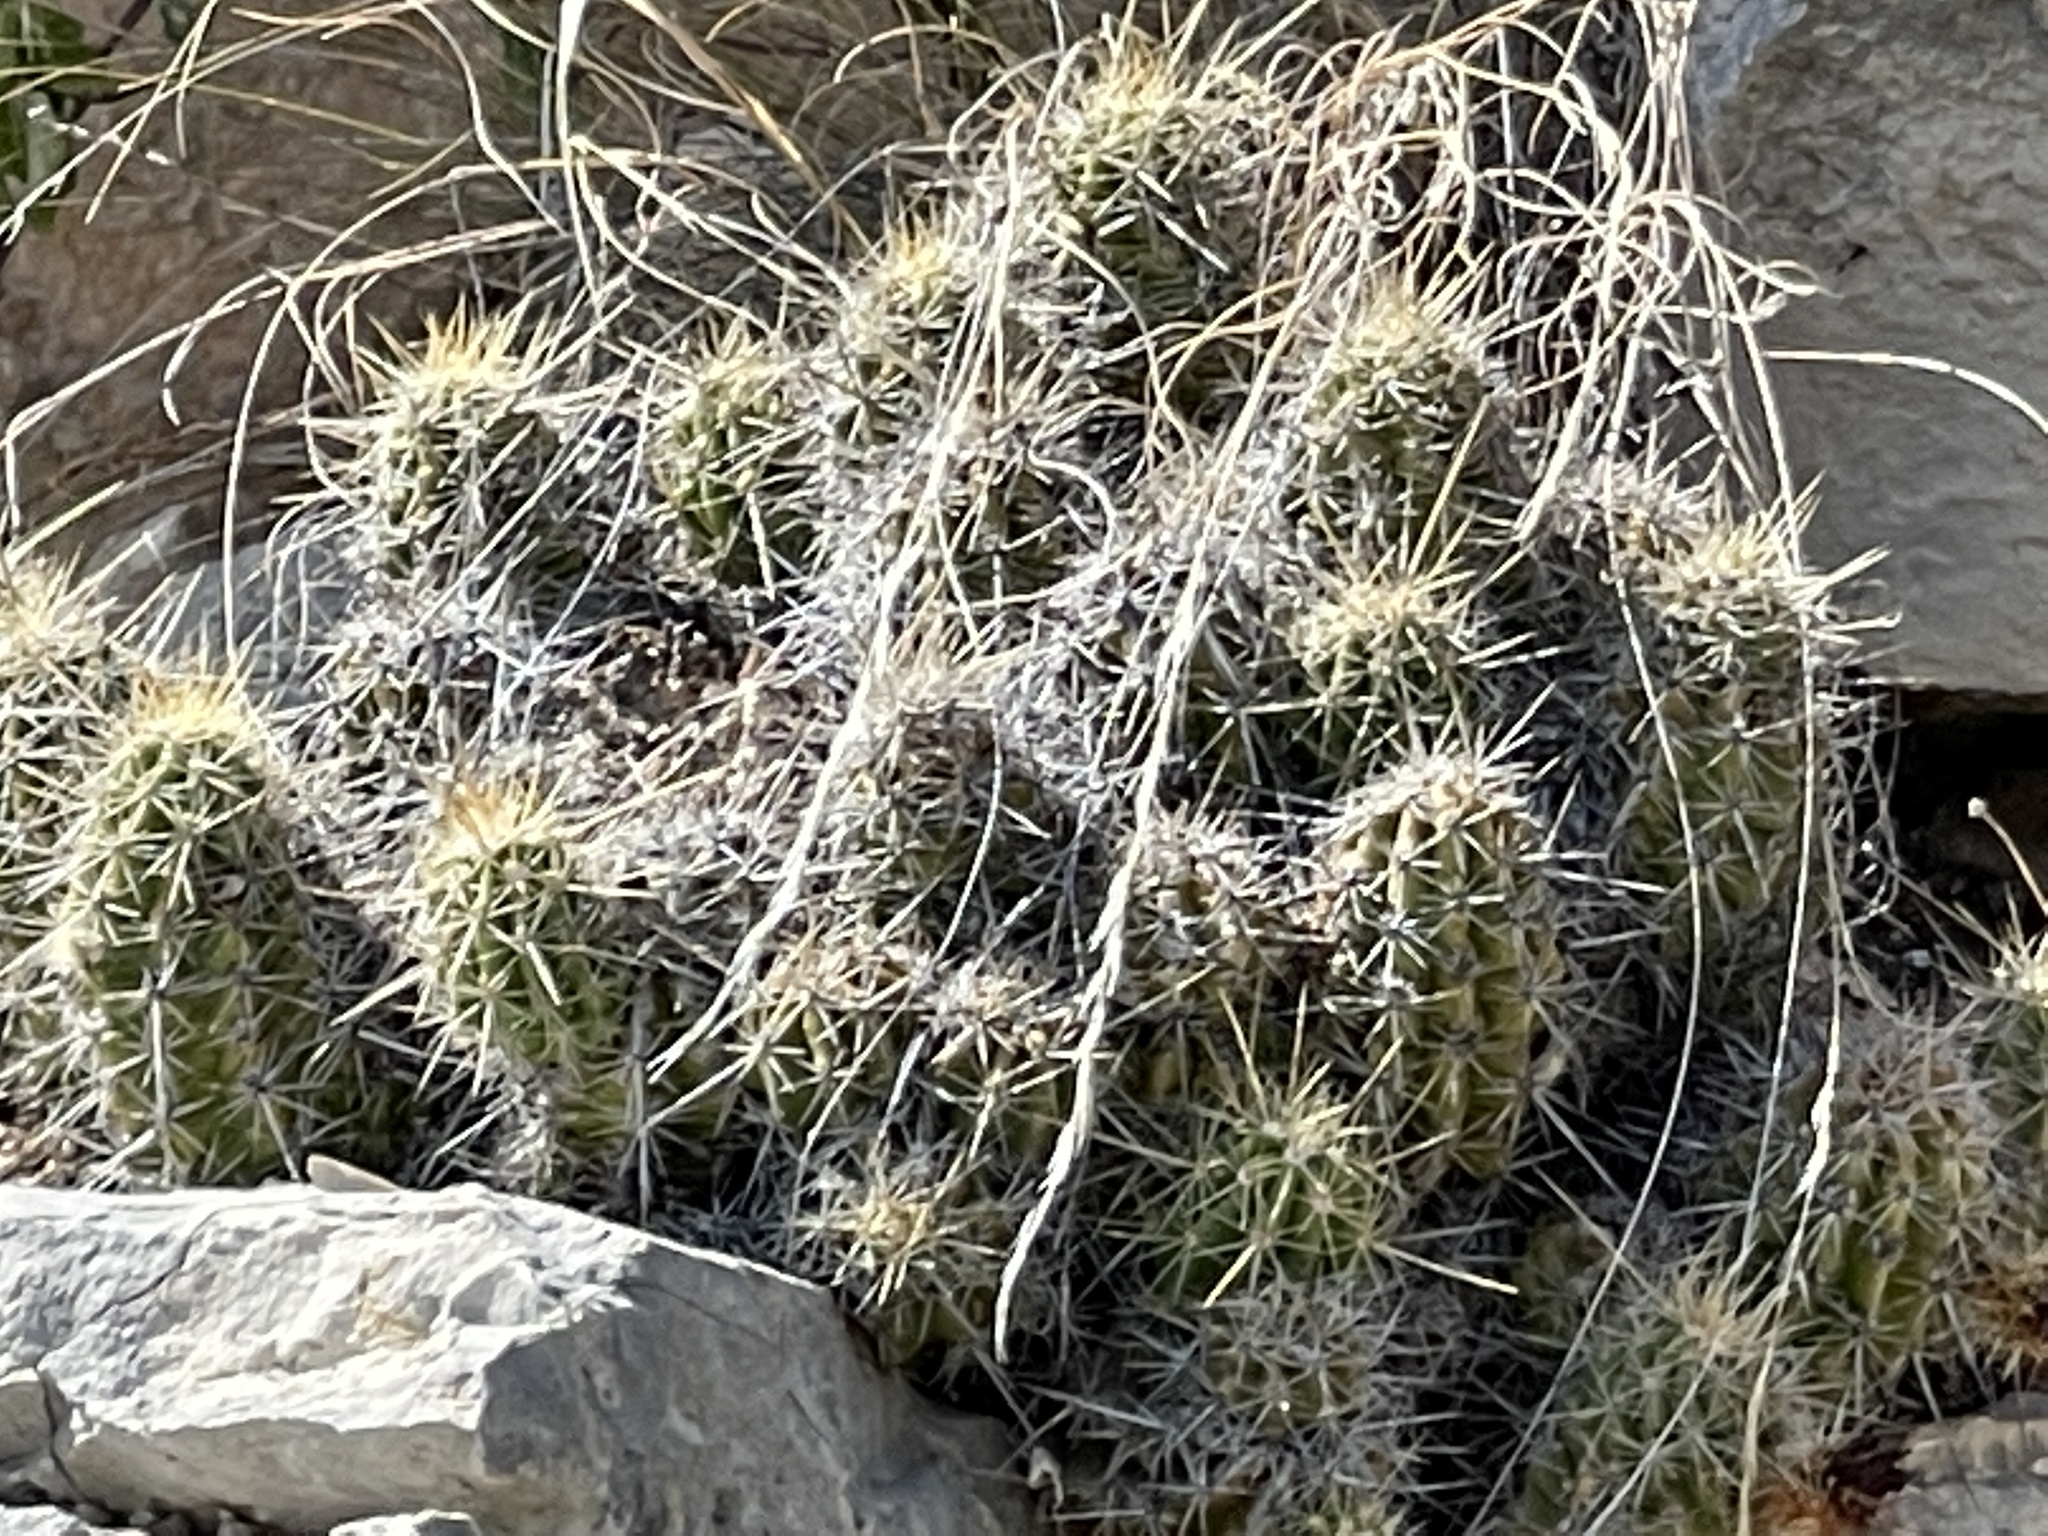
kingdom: Plantae
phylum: Tracheophyta
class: Magnoliopsida
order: Caryophyllales
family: Cactaceae
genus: Echinocereus
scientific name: Echinocereus enneacanthus
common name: Pitaya
